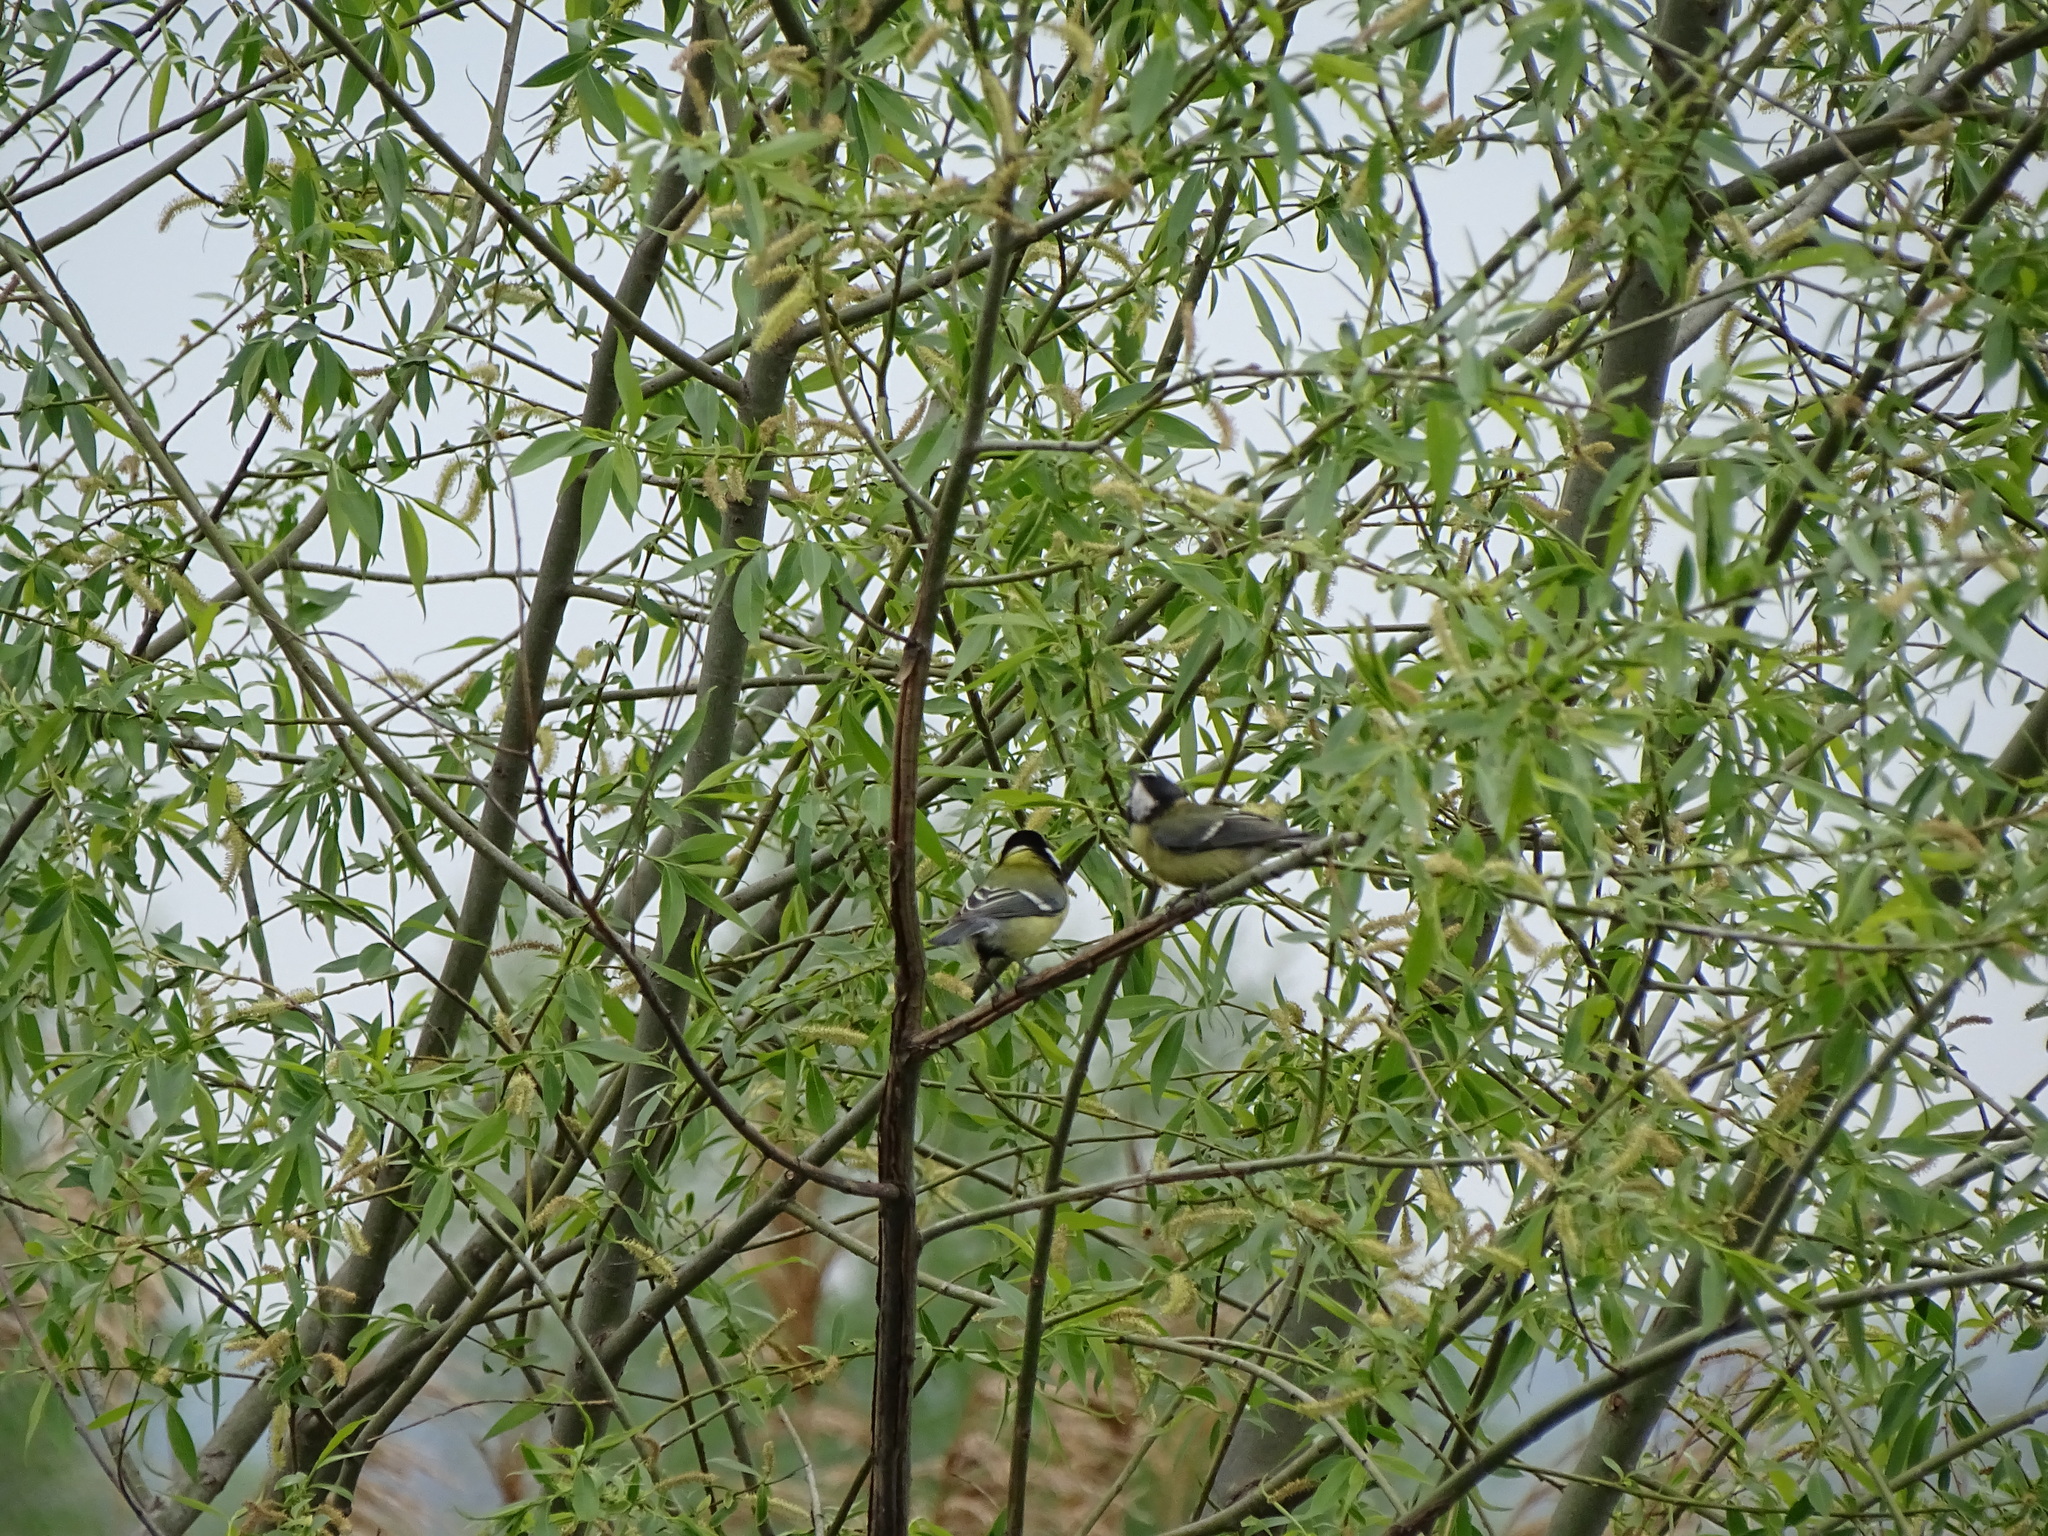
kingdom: Animalia
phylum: Chordata
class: Aves
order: Passeriformes
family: Paridae
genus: Parus
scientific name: Parus major
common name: Great tit
